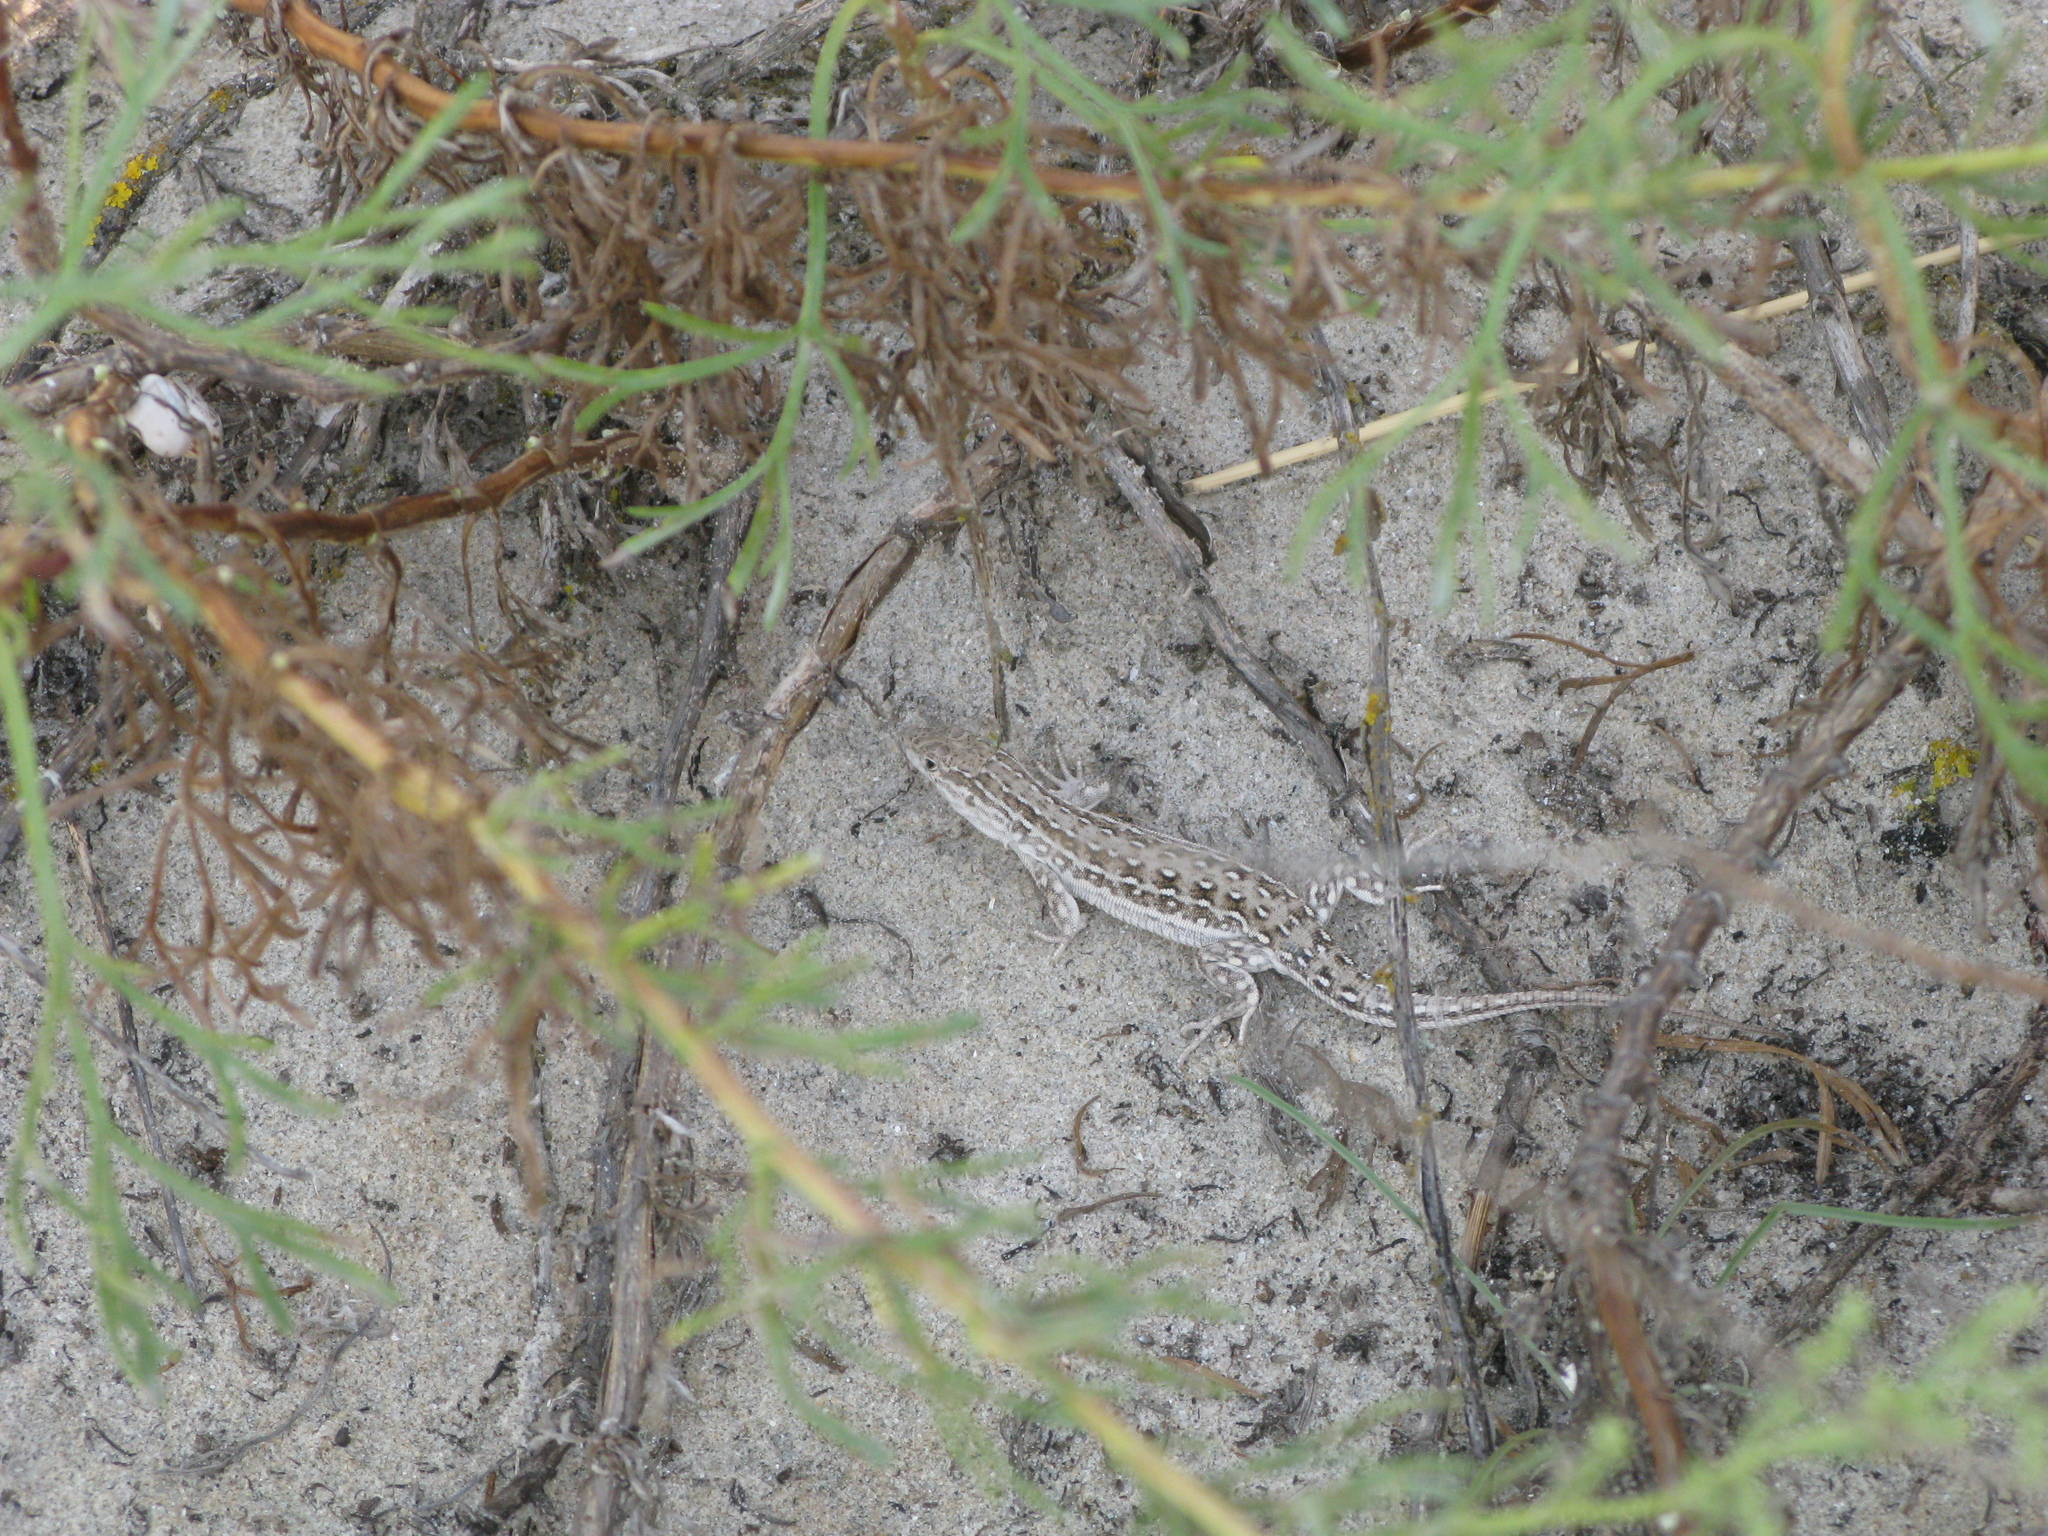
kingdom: Animalia
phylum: Chordata
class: Squamata
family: Lacertidae
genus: Eremias
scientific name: Eremias arguta
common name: Racerunner
